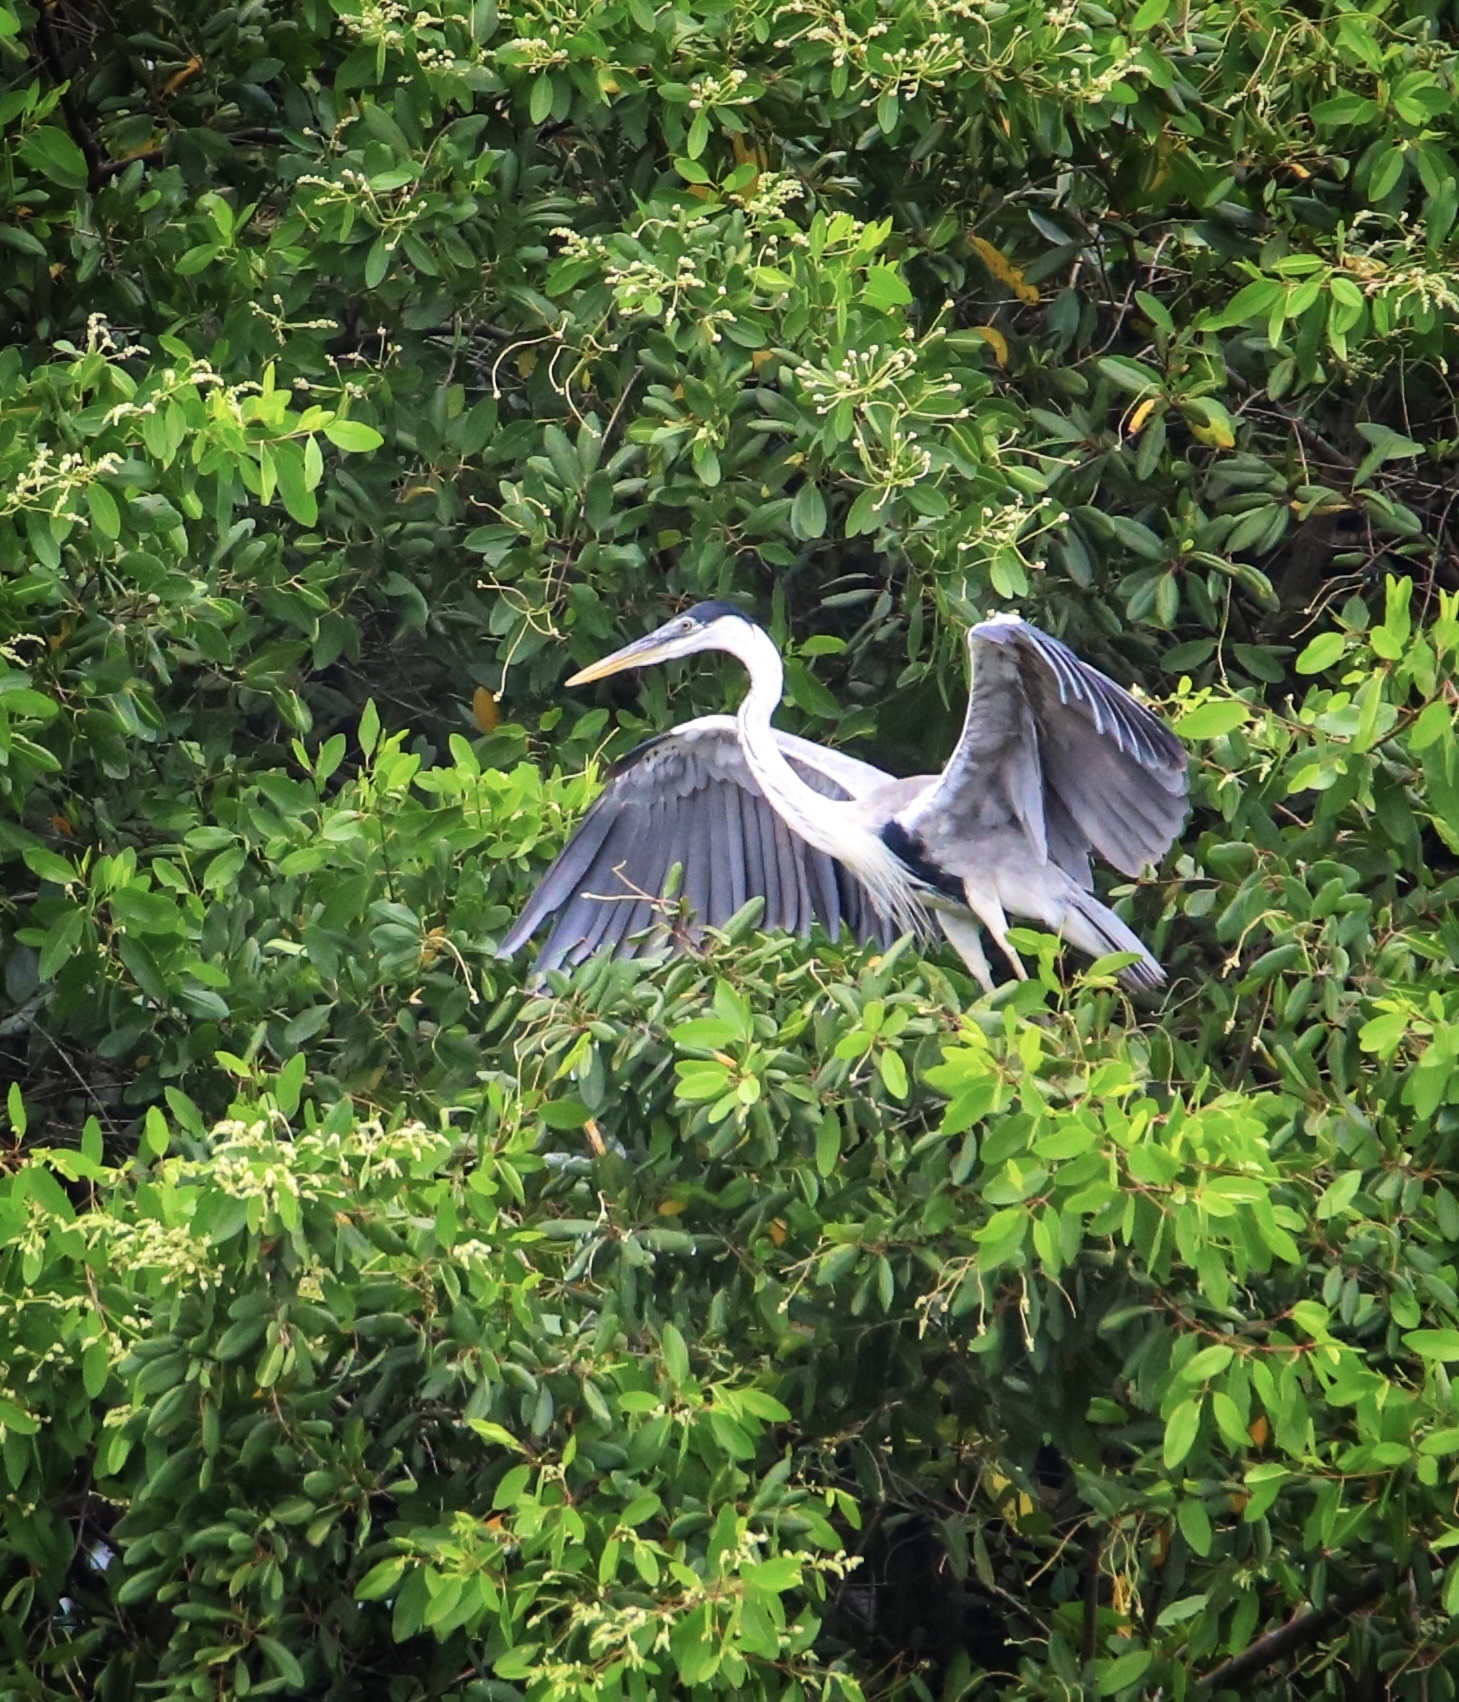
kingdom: Animalia
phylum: Chordata
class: Aves
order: Pelecaniformes
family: Ardeidae
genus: Ardea
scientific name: Ardea cocoi
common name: Cocoi heron
